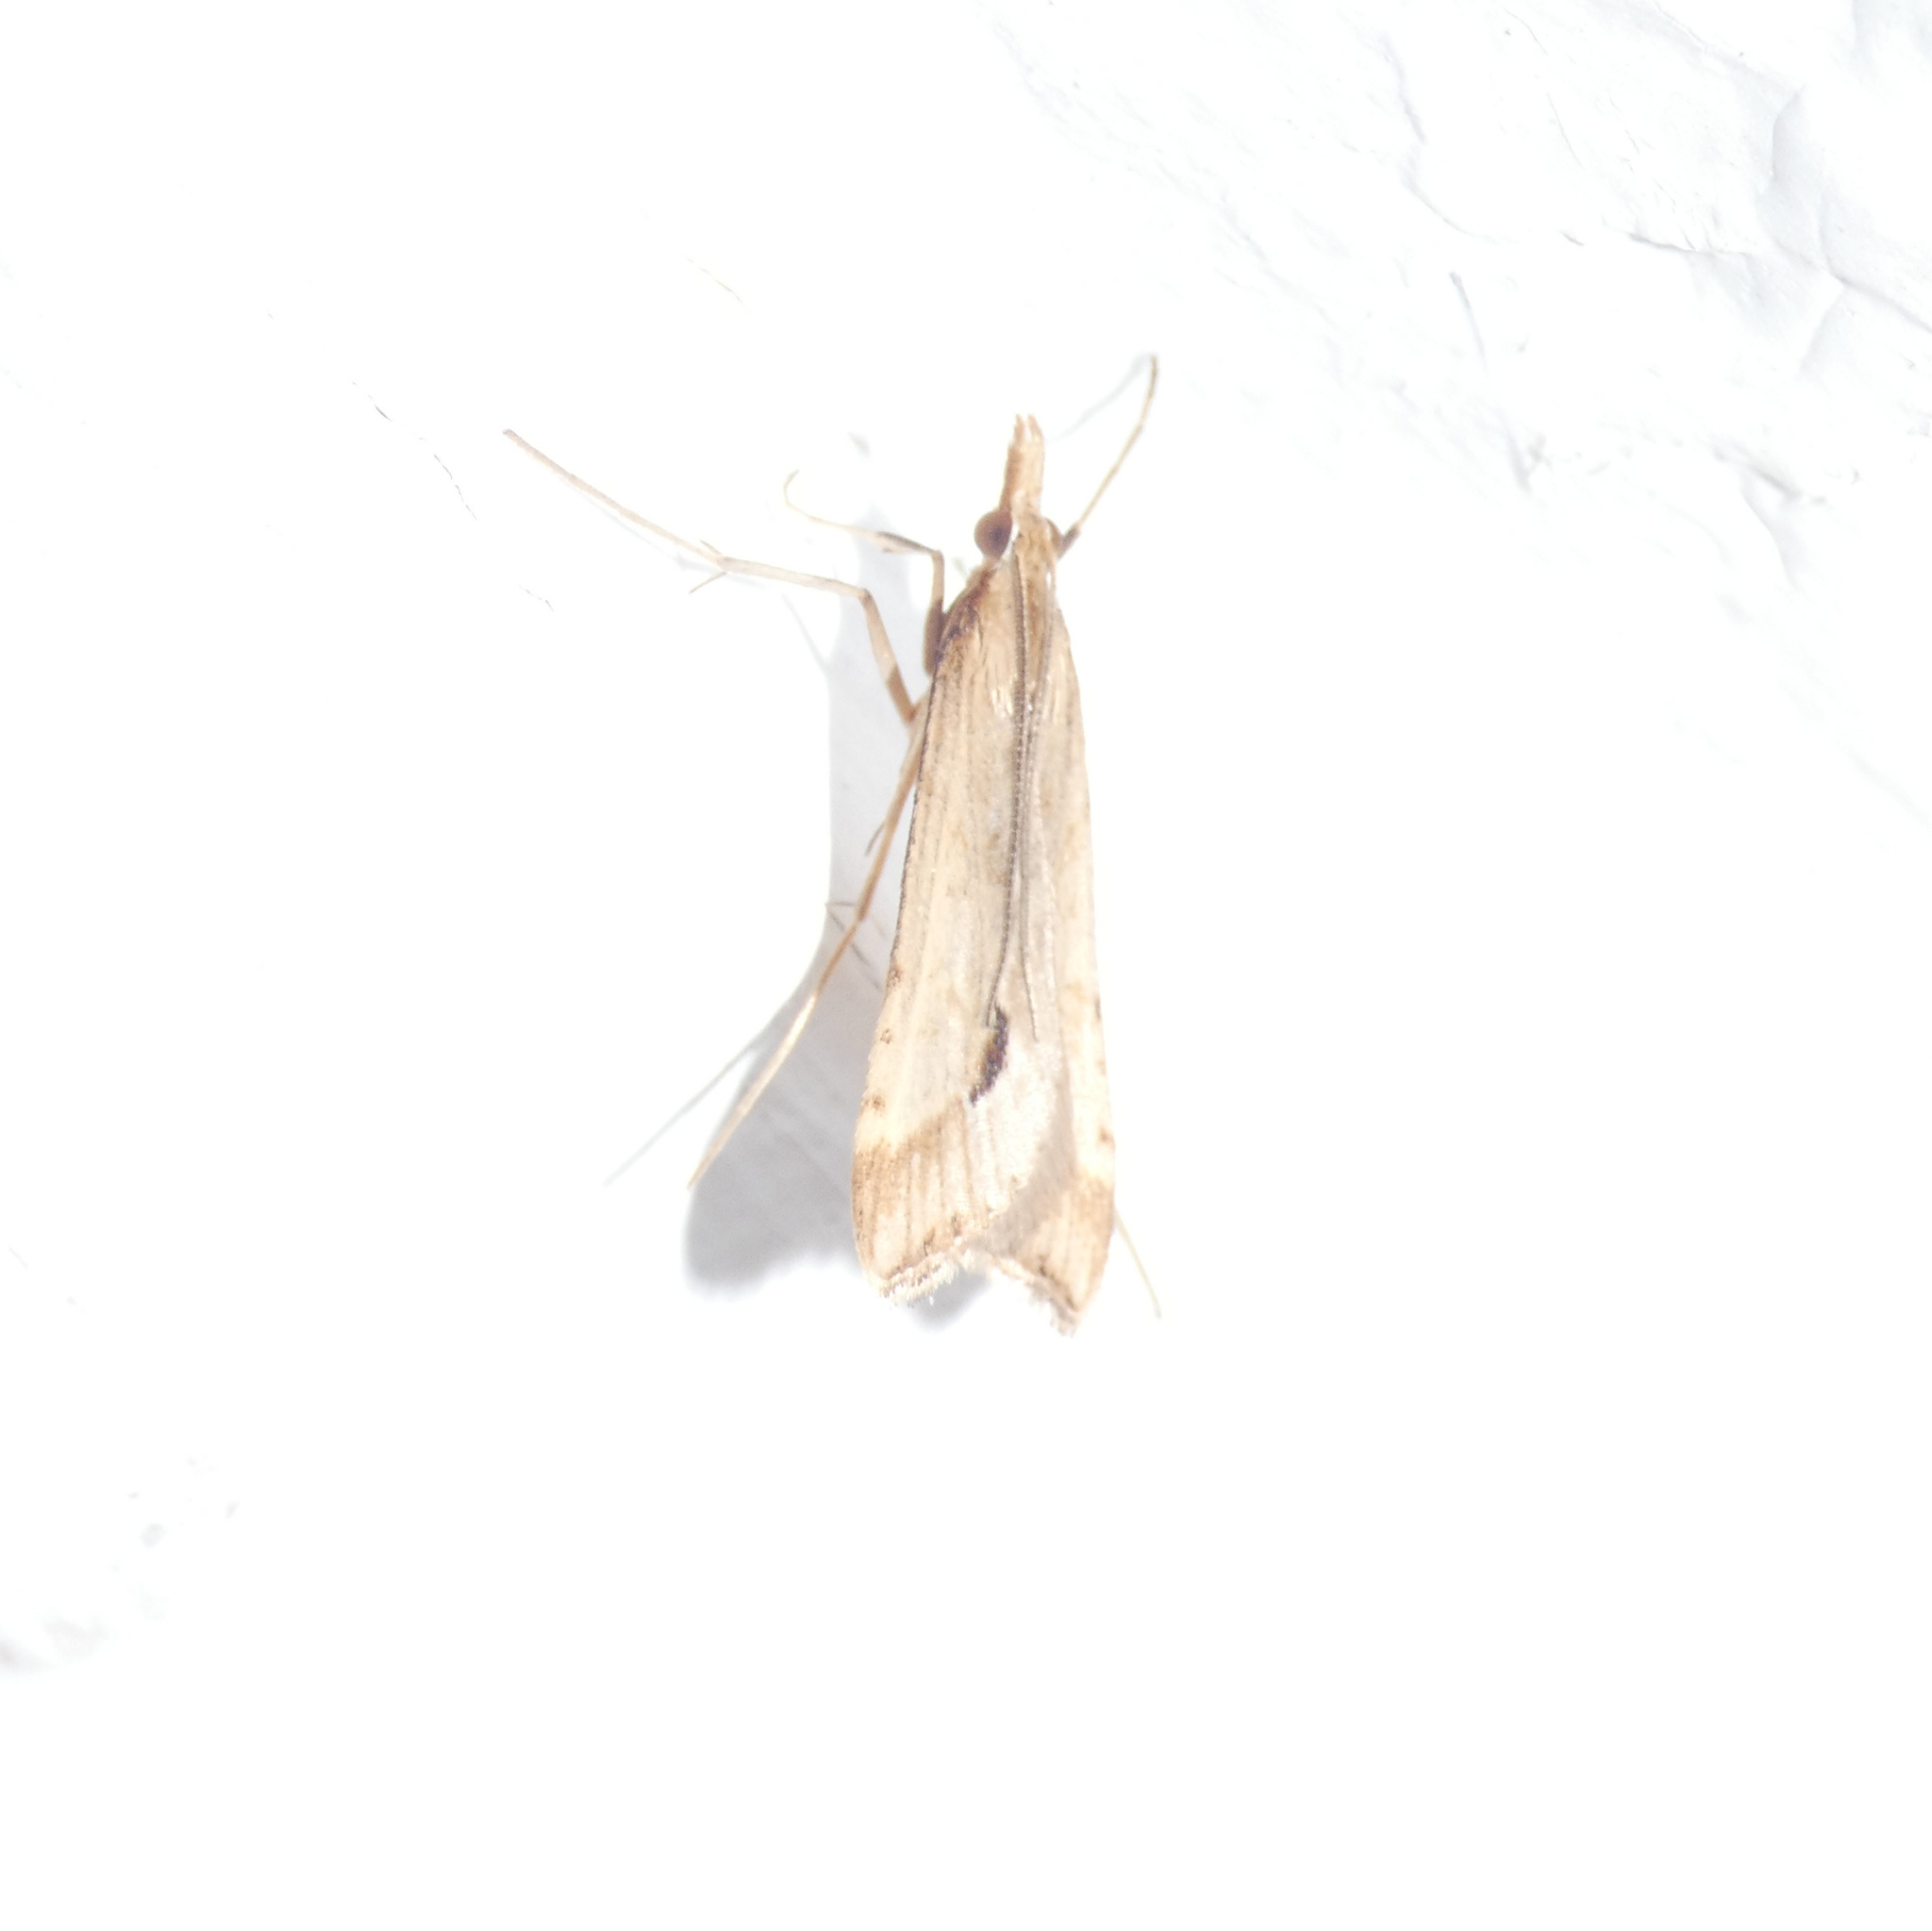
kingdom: Animalia
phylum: Arthropoda
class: Insecta
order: Lepidoptera
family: Crambidae
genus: Diasemia
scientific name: Diasemia monostigma
